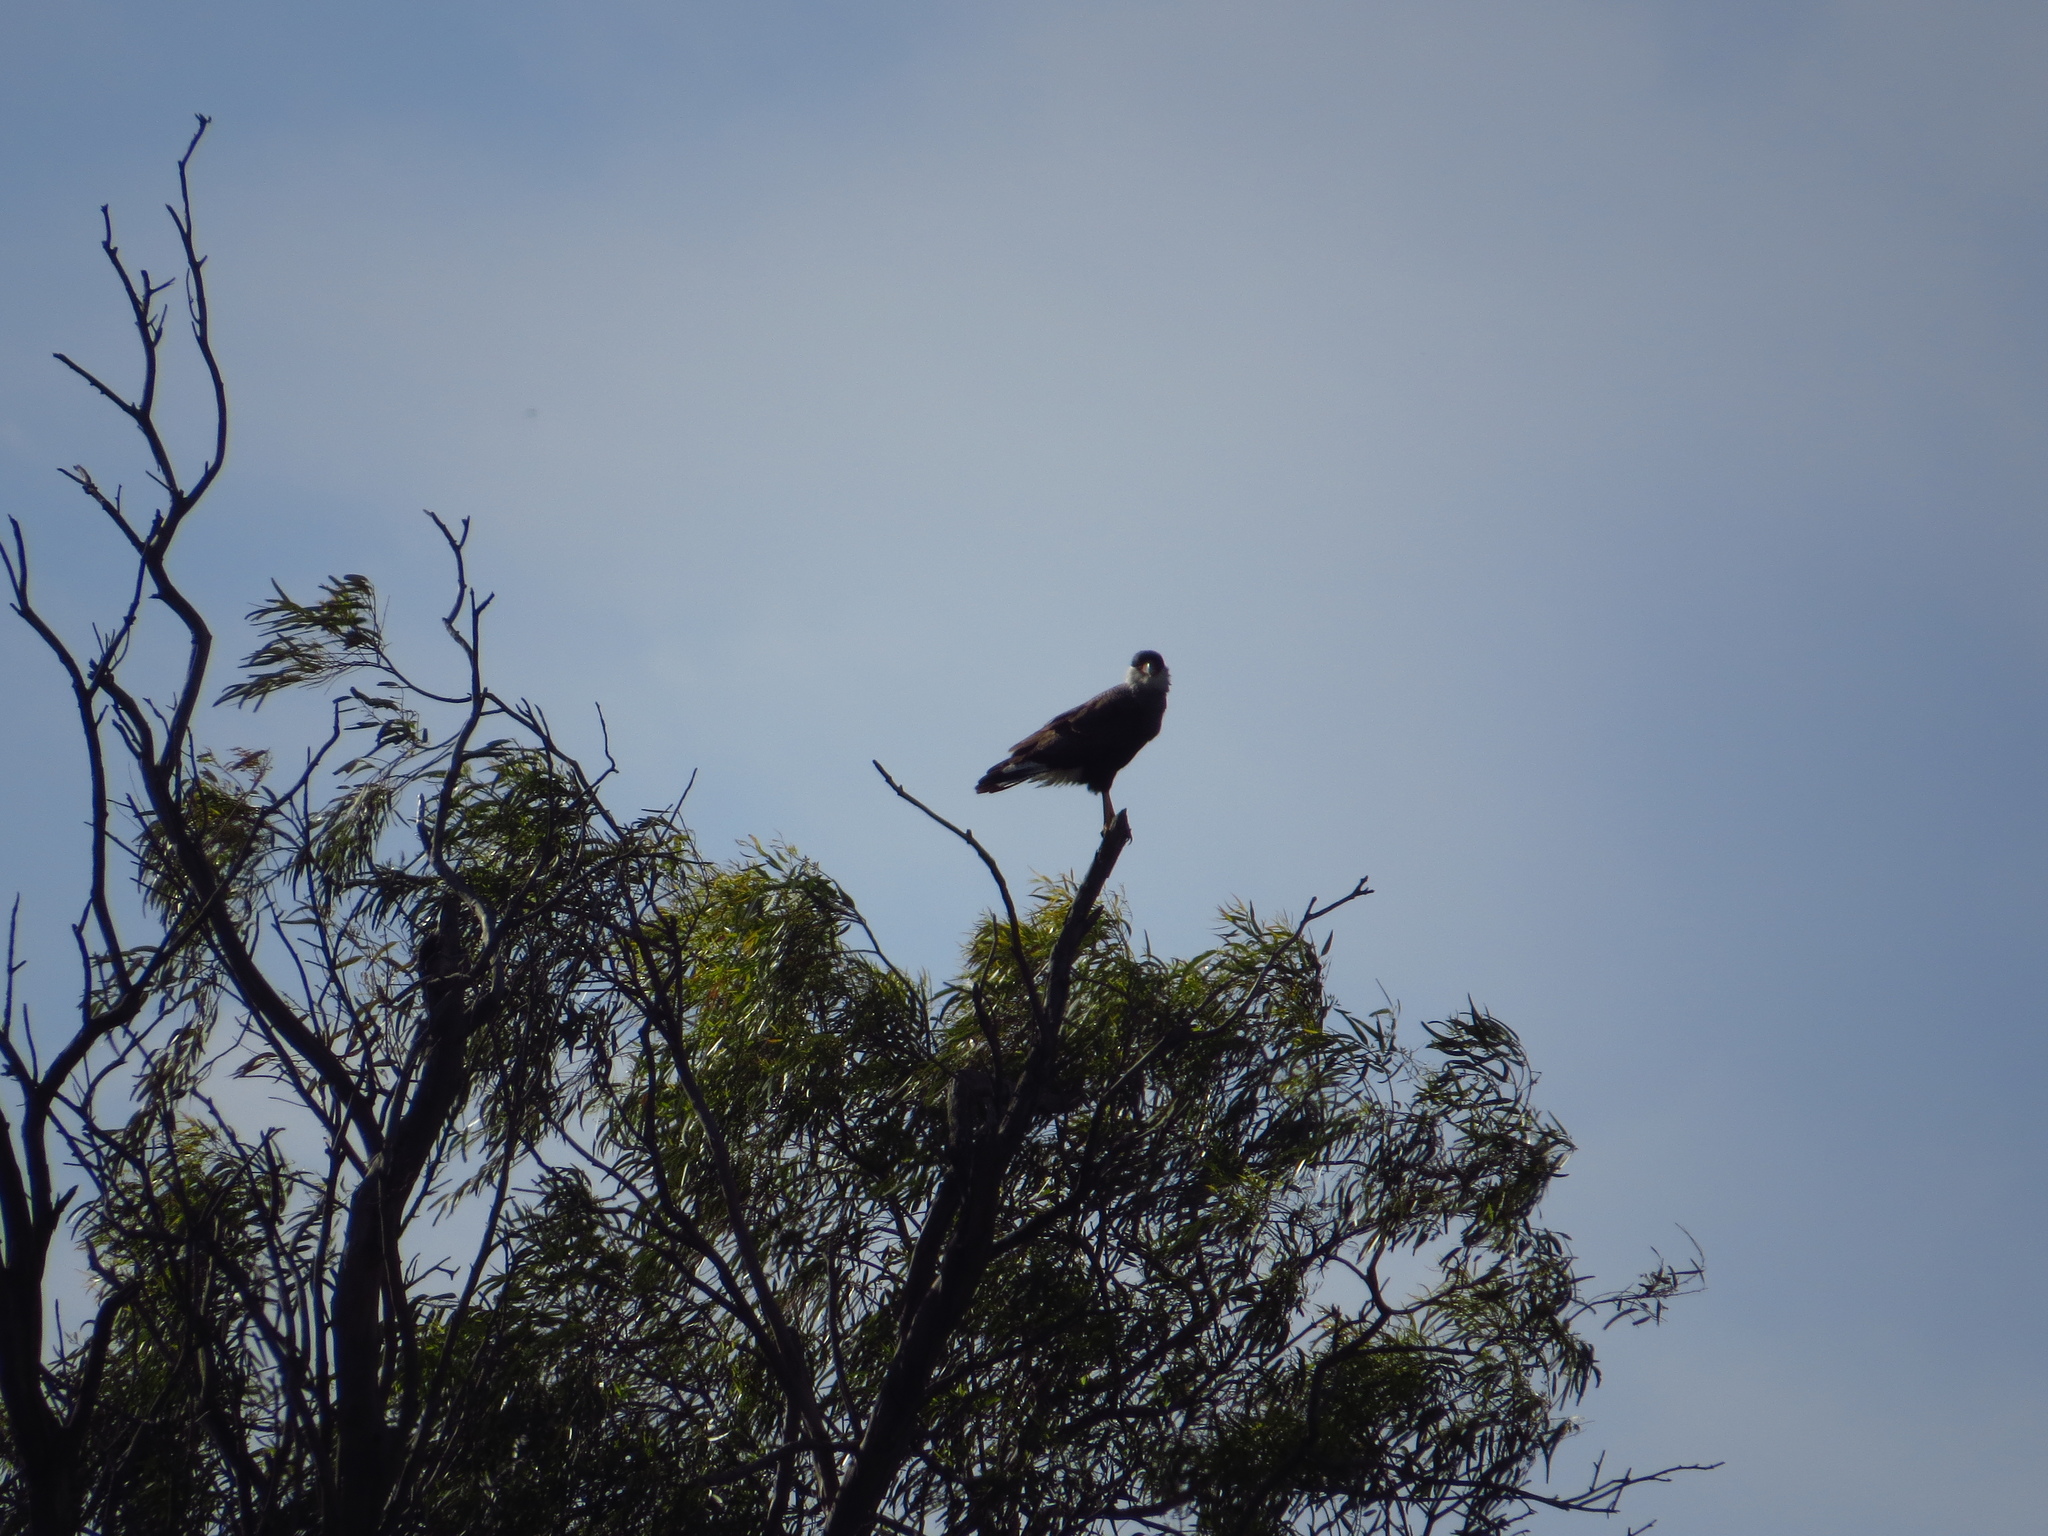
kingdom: Animalia
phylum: Chordata
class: Aves
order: Falconiformes
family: Falconidae
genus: Caracara
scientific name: Caracara plancus
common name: Southern caracara
